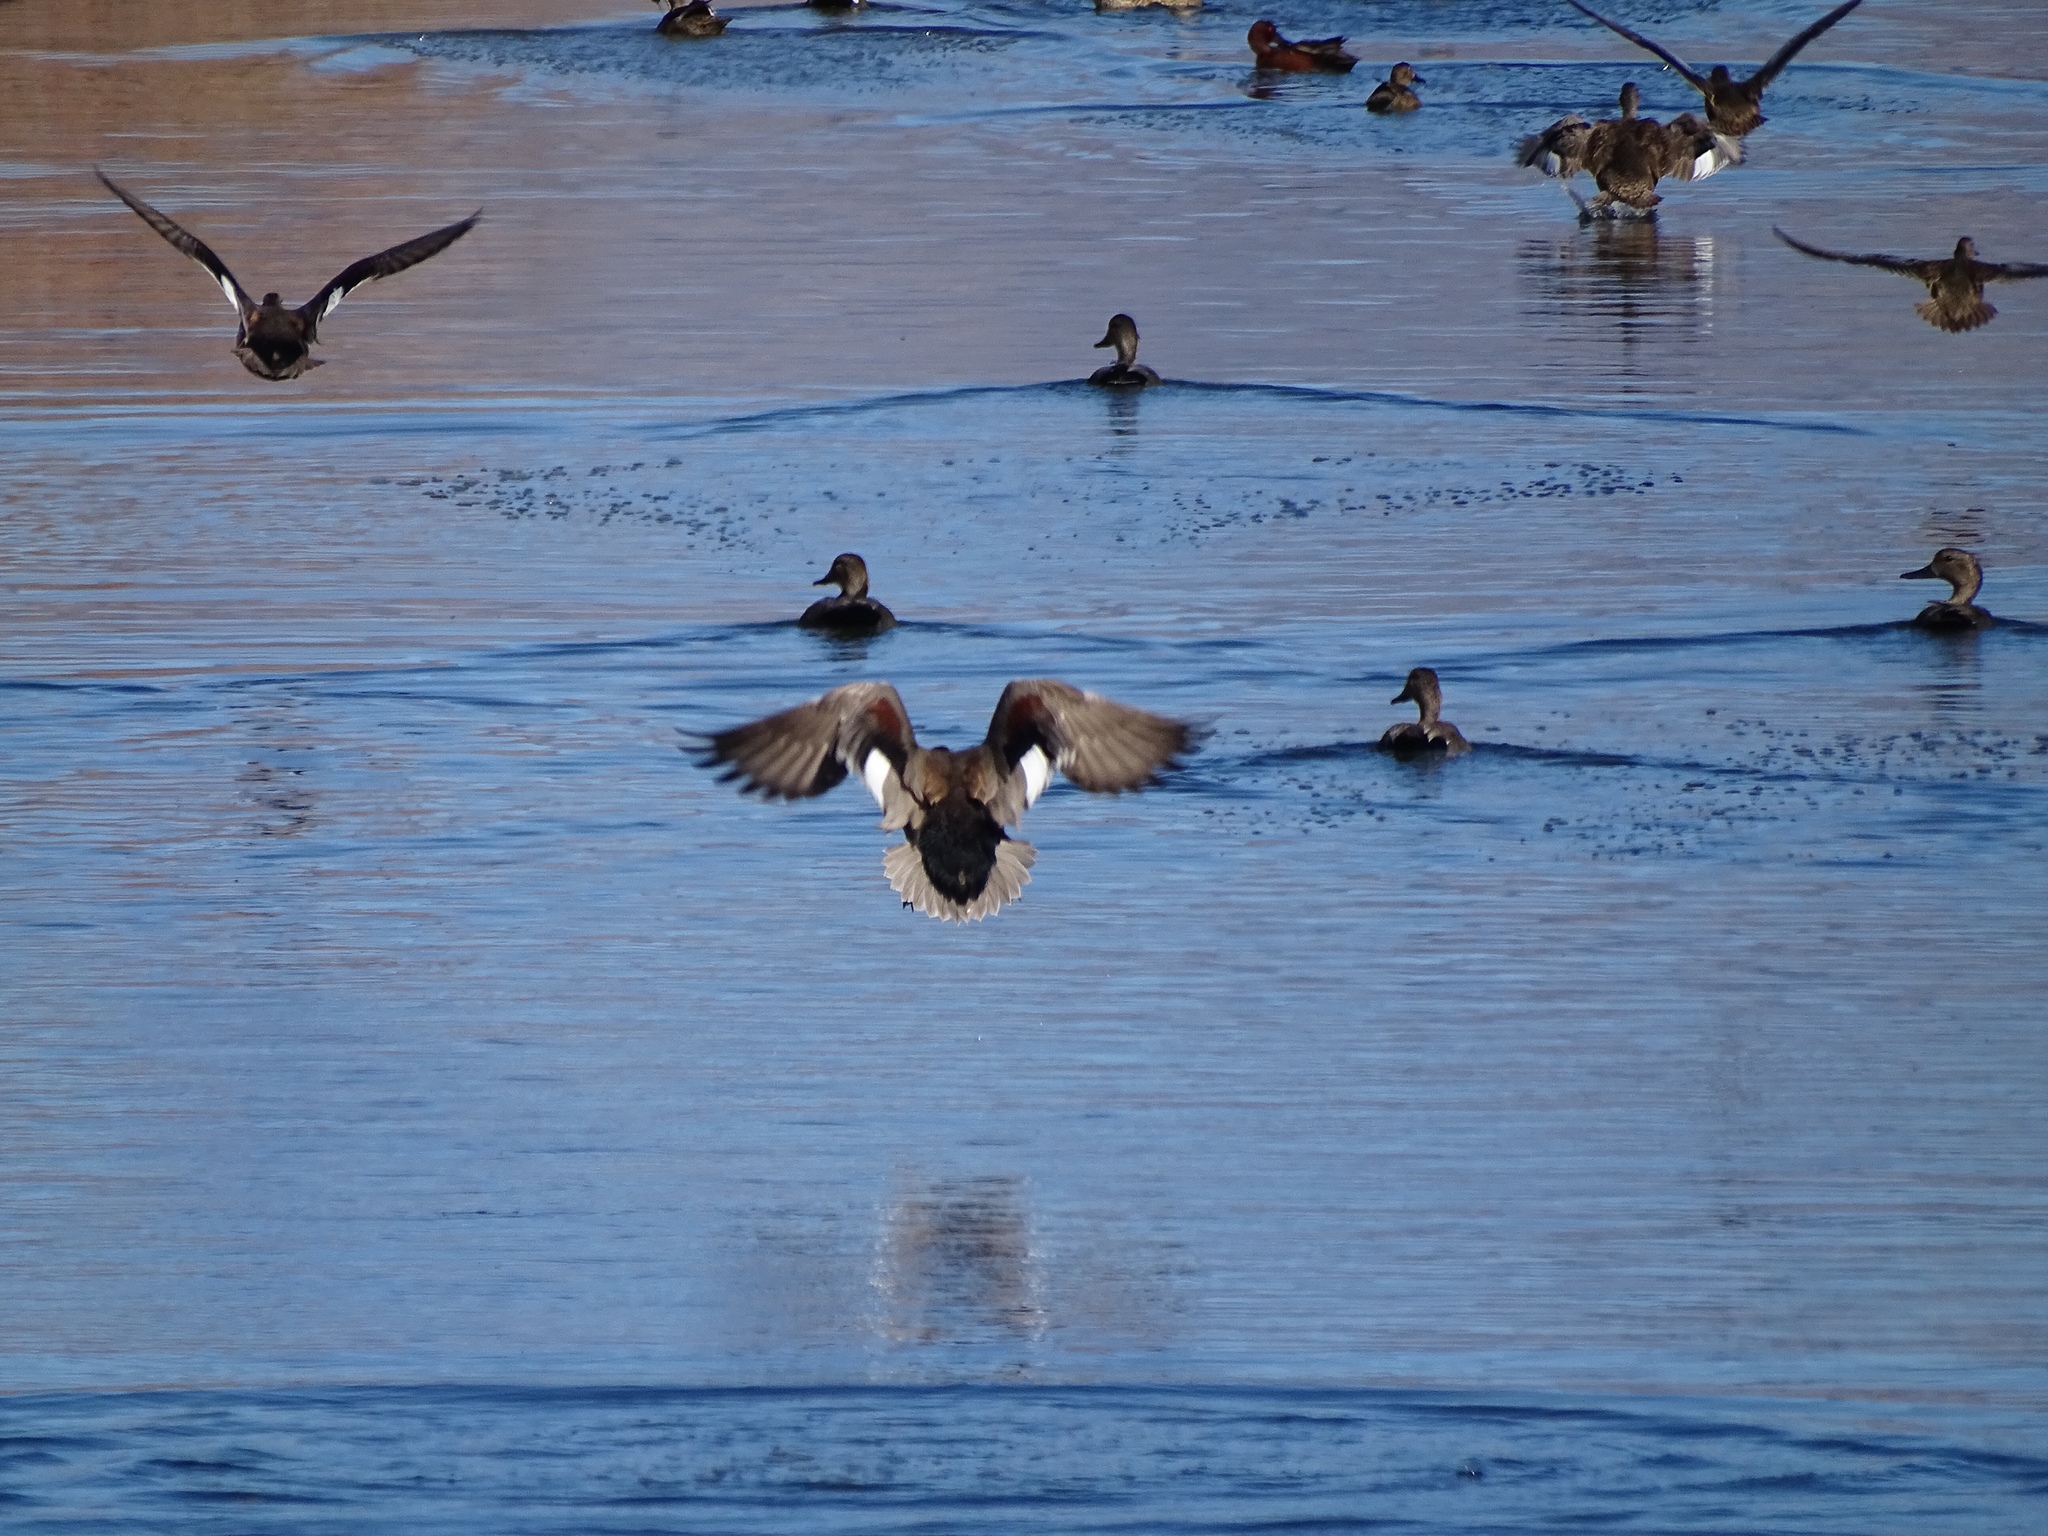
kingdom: Animalia
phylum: Chordata
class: Aves
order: Anseriformes
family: Anatidae
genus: Mareca
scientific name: Mareca strepera
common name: Gadwall
